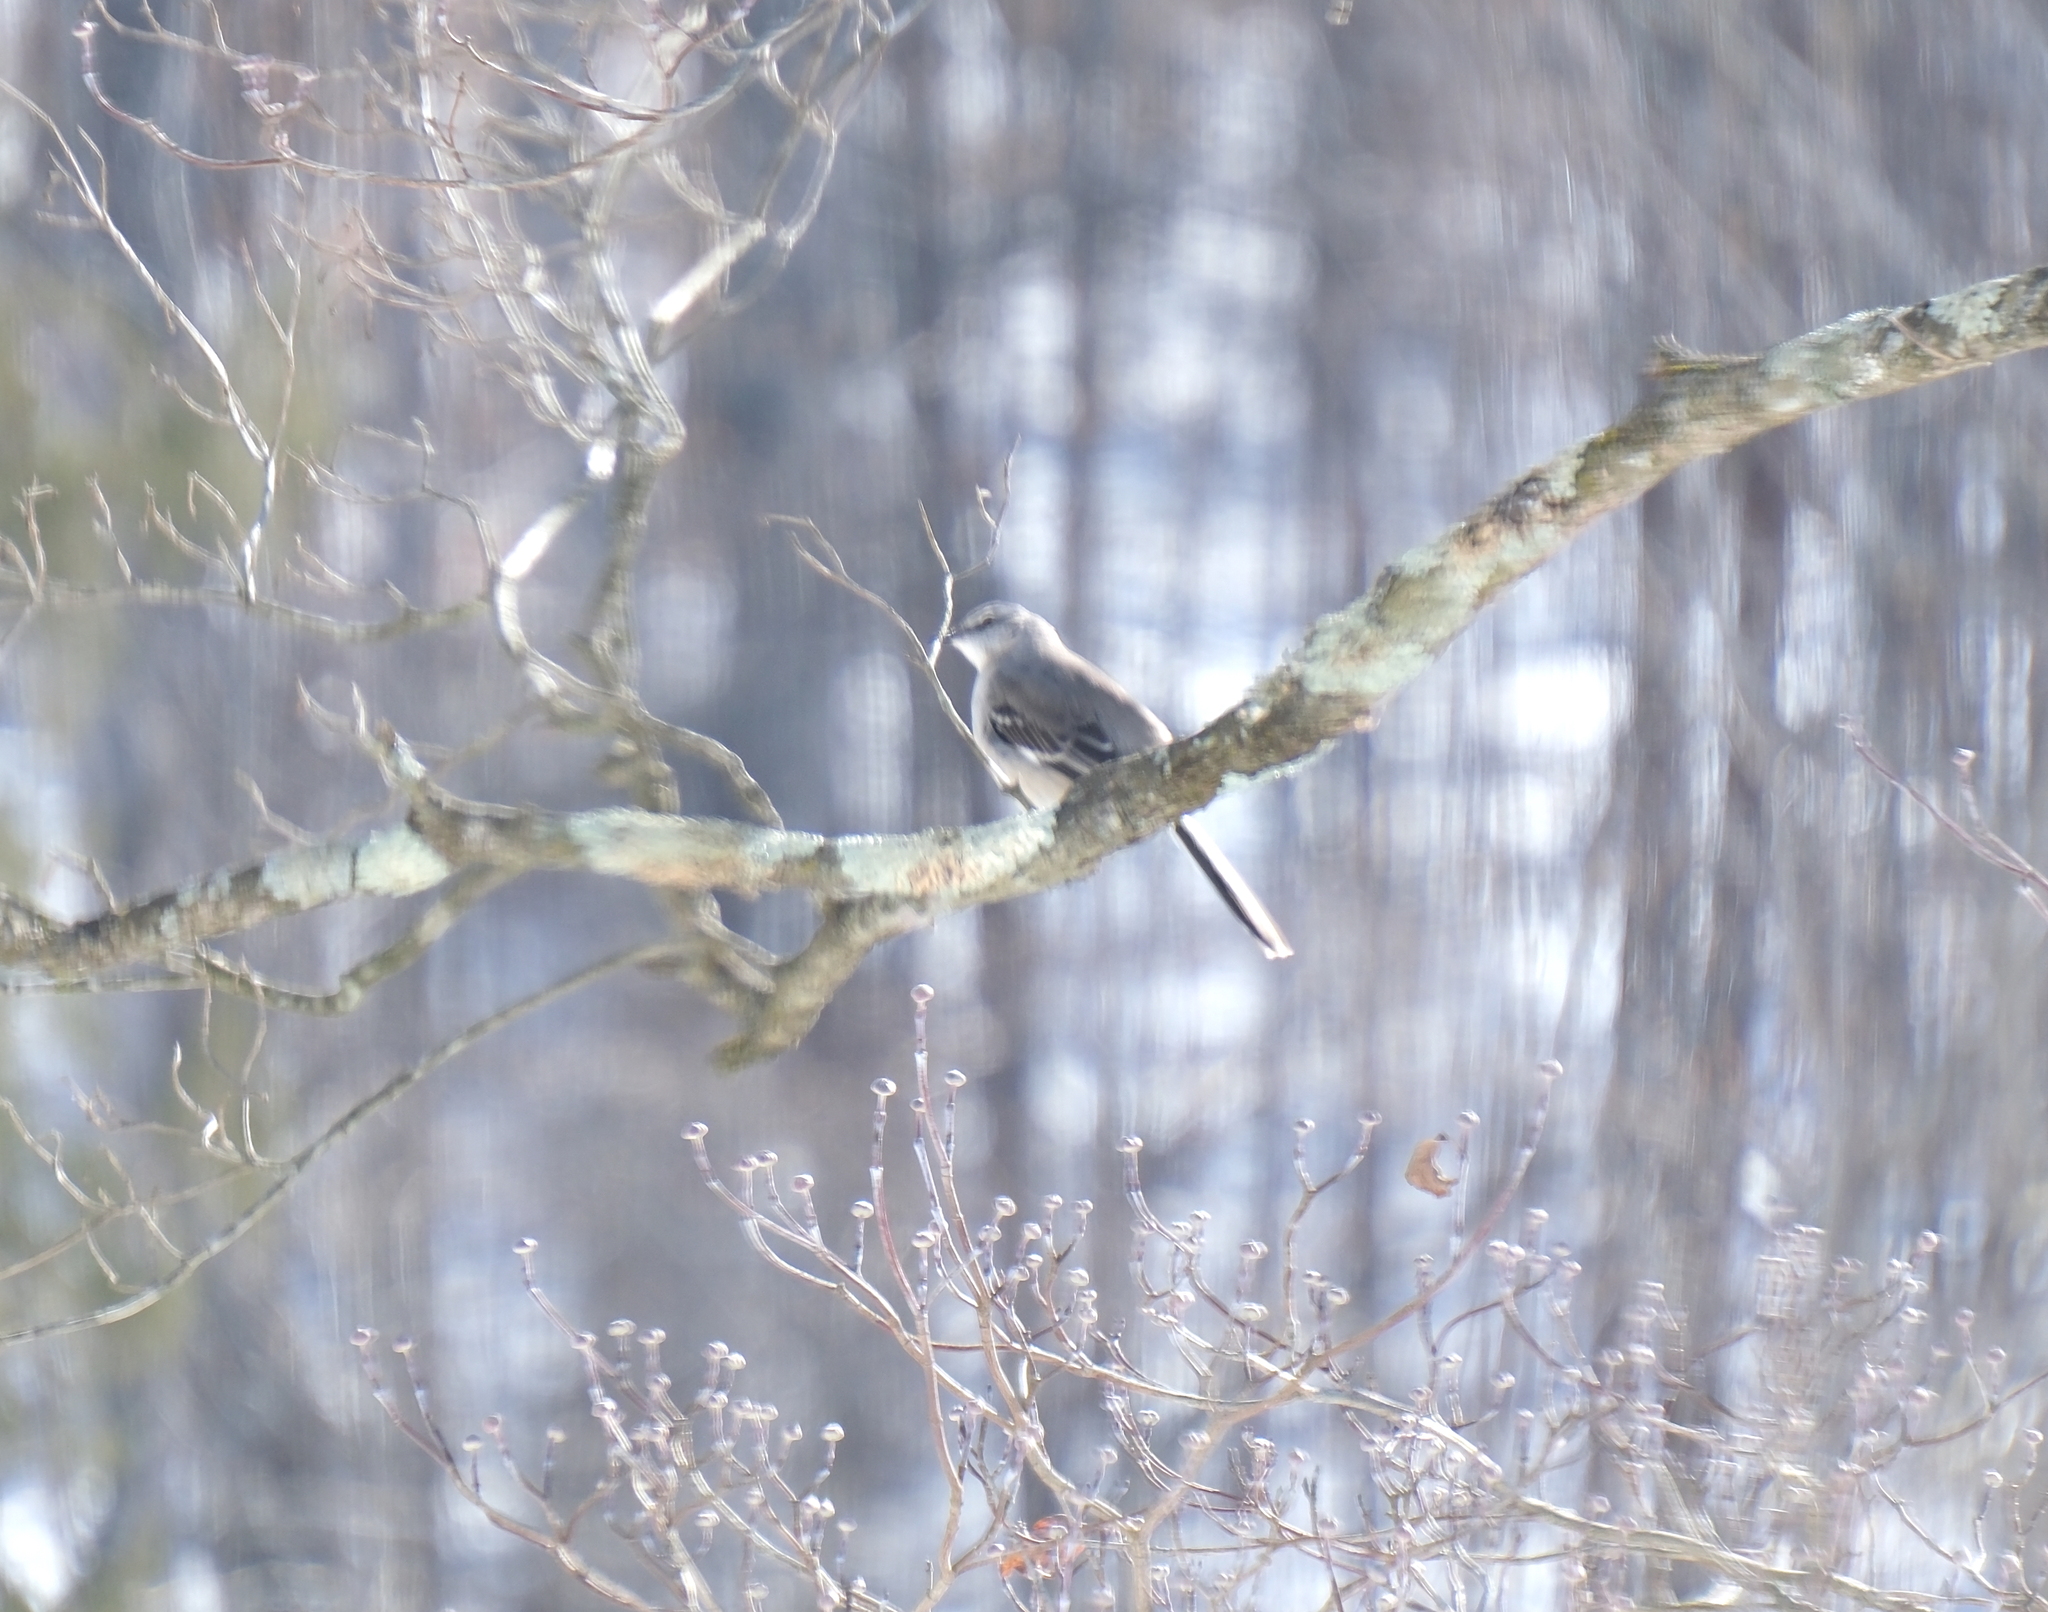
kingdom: Animalia
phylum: Chordata
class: Aves
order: Passeriformes
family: Mimidae
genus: Mimus
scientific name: Mimus polyglottos
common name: Northern mockingbird
